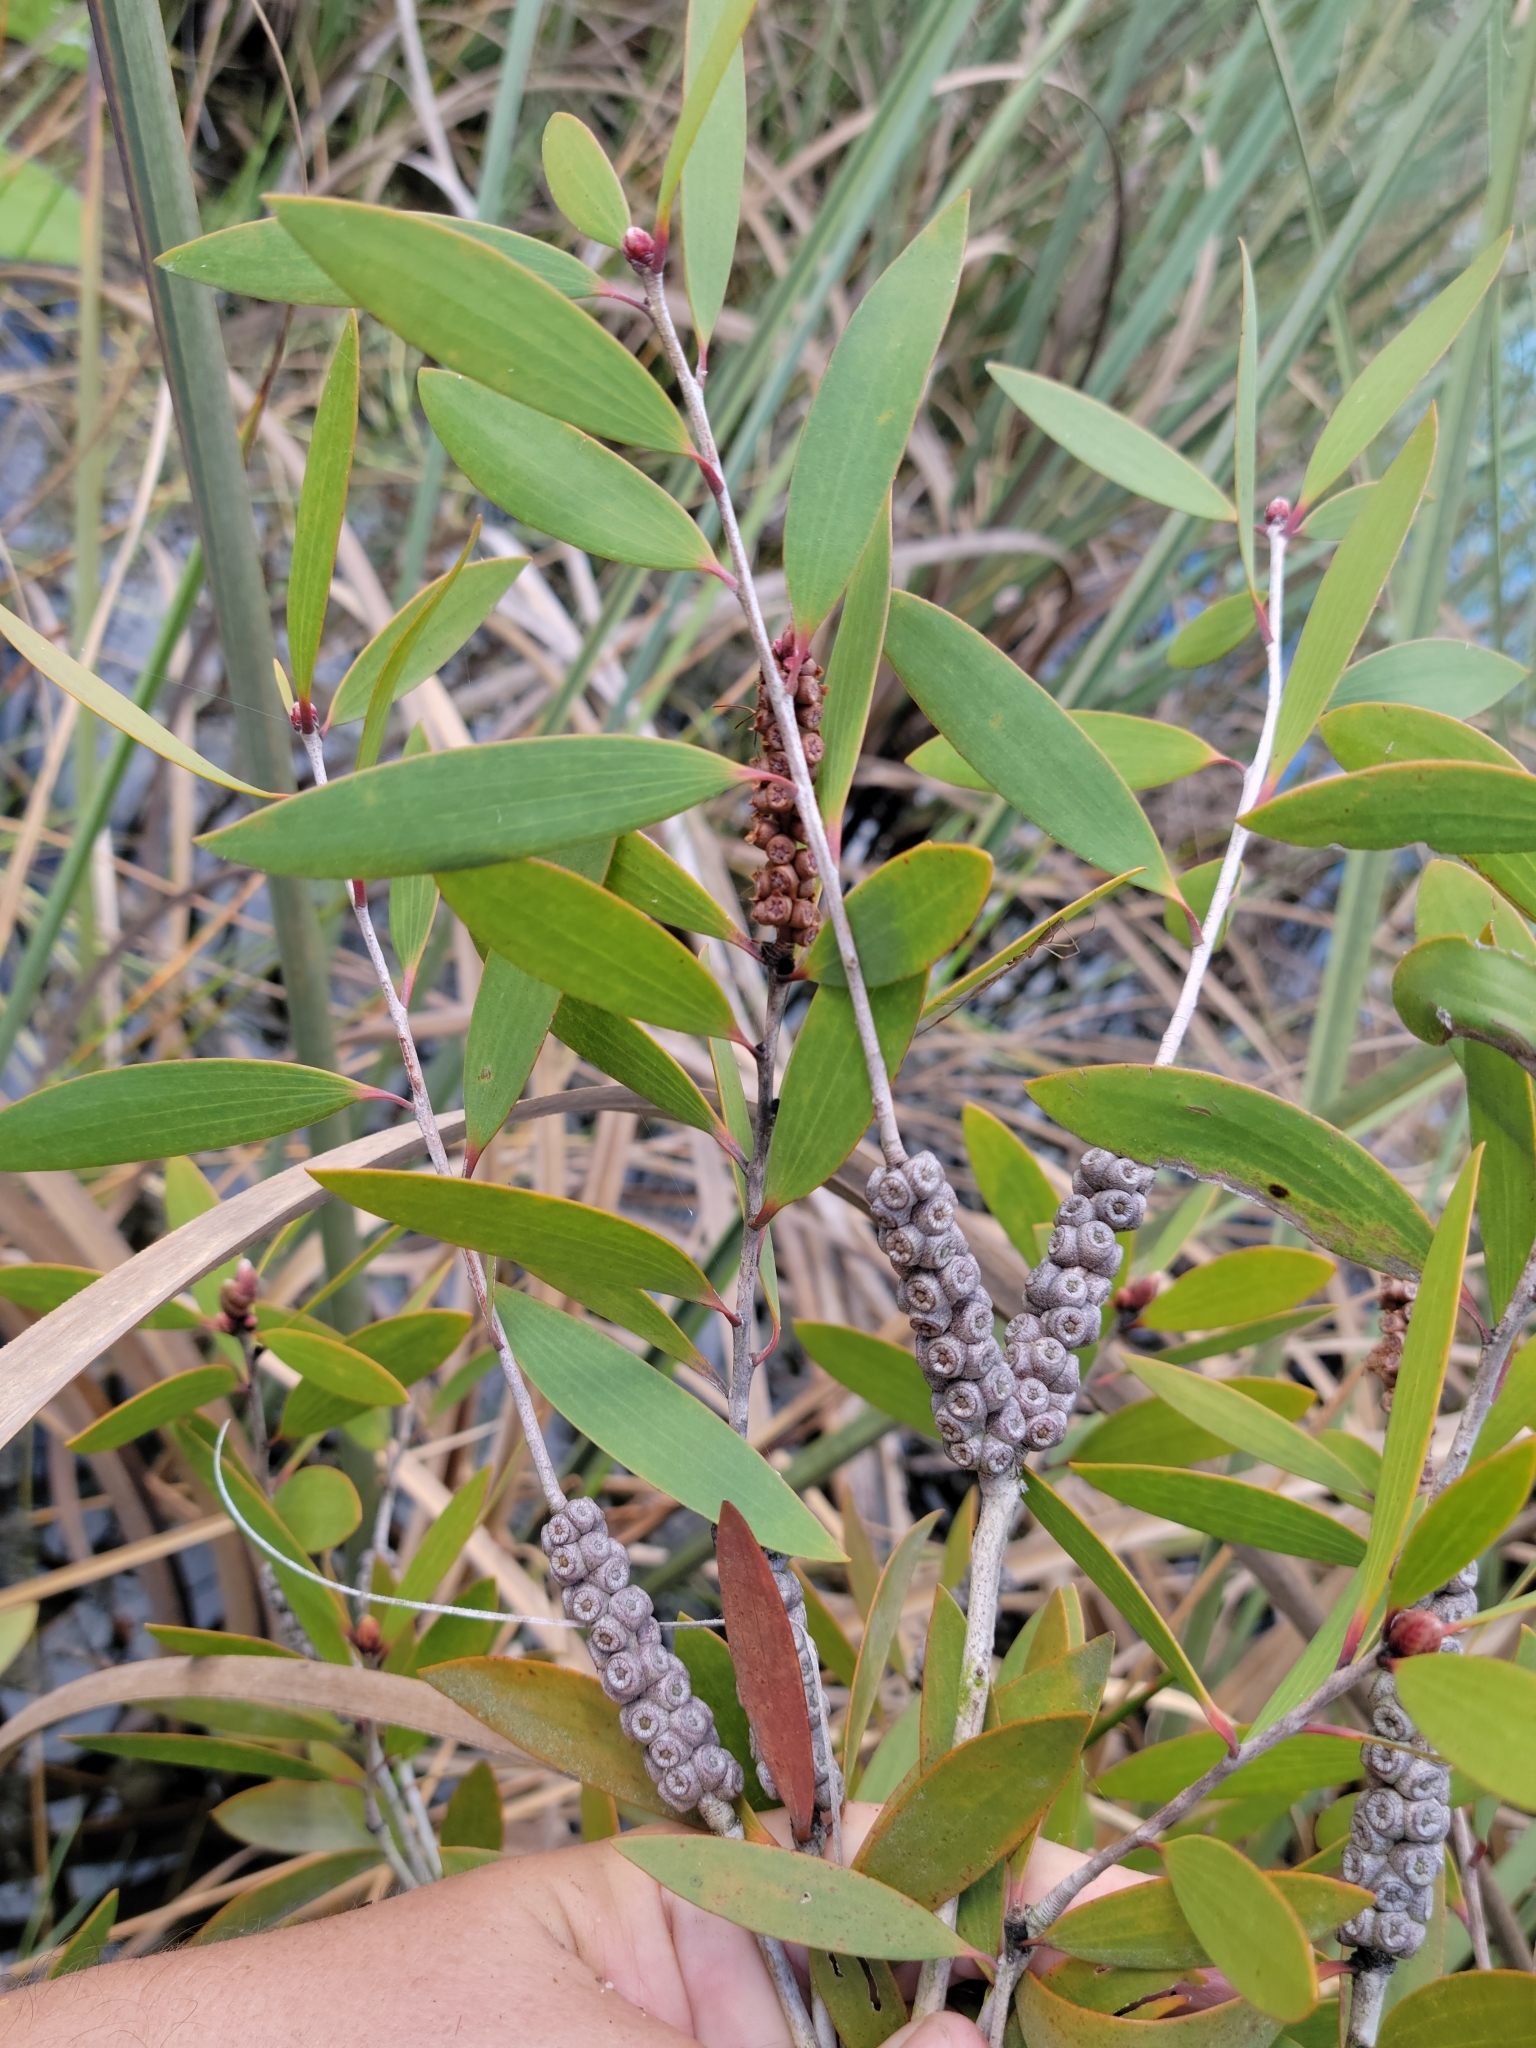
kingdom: Plantae
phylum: Tracheophyta
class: Magnoliopsida
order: Myrtales
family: Myrtaceae
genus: Melaleuca
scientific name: Melaleuca quinquenervia
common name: Punktree
